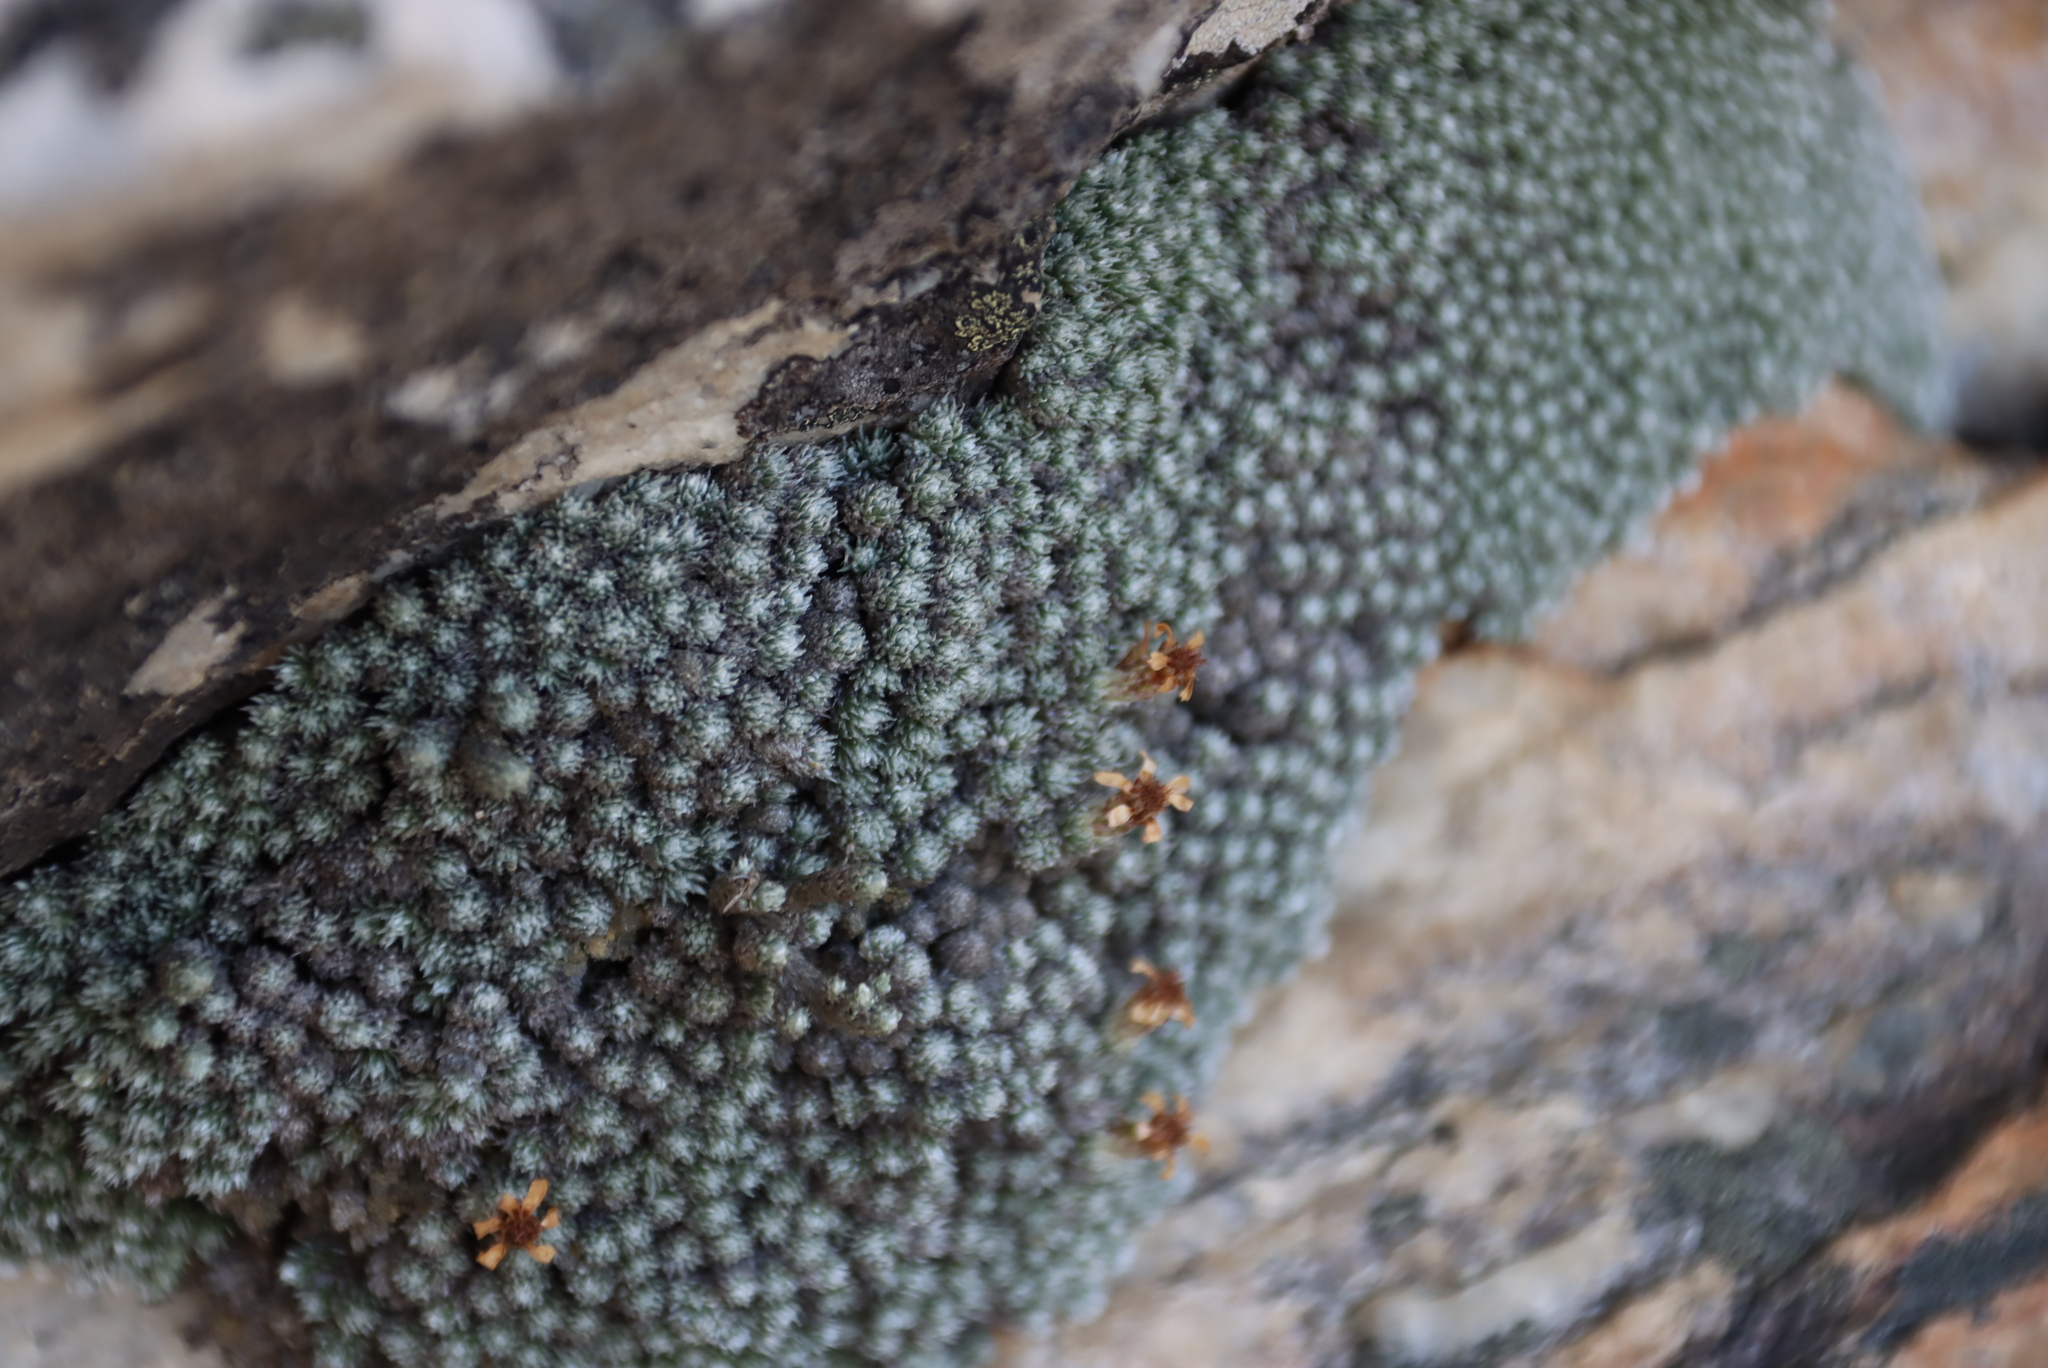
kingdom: Plantae
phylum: Tracheophyta
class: Magnoliopsida
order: Asterales
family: Asteraceae
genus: Muscosomorphe
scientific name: Muscosomorphe aretioides
